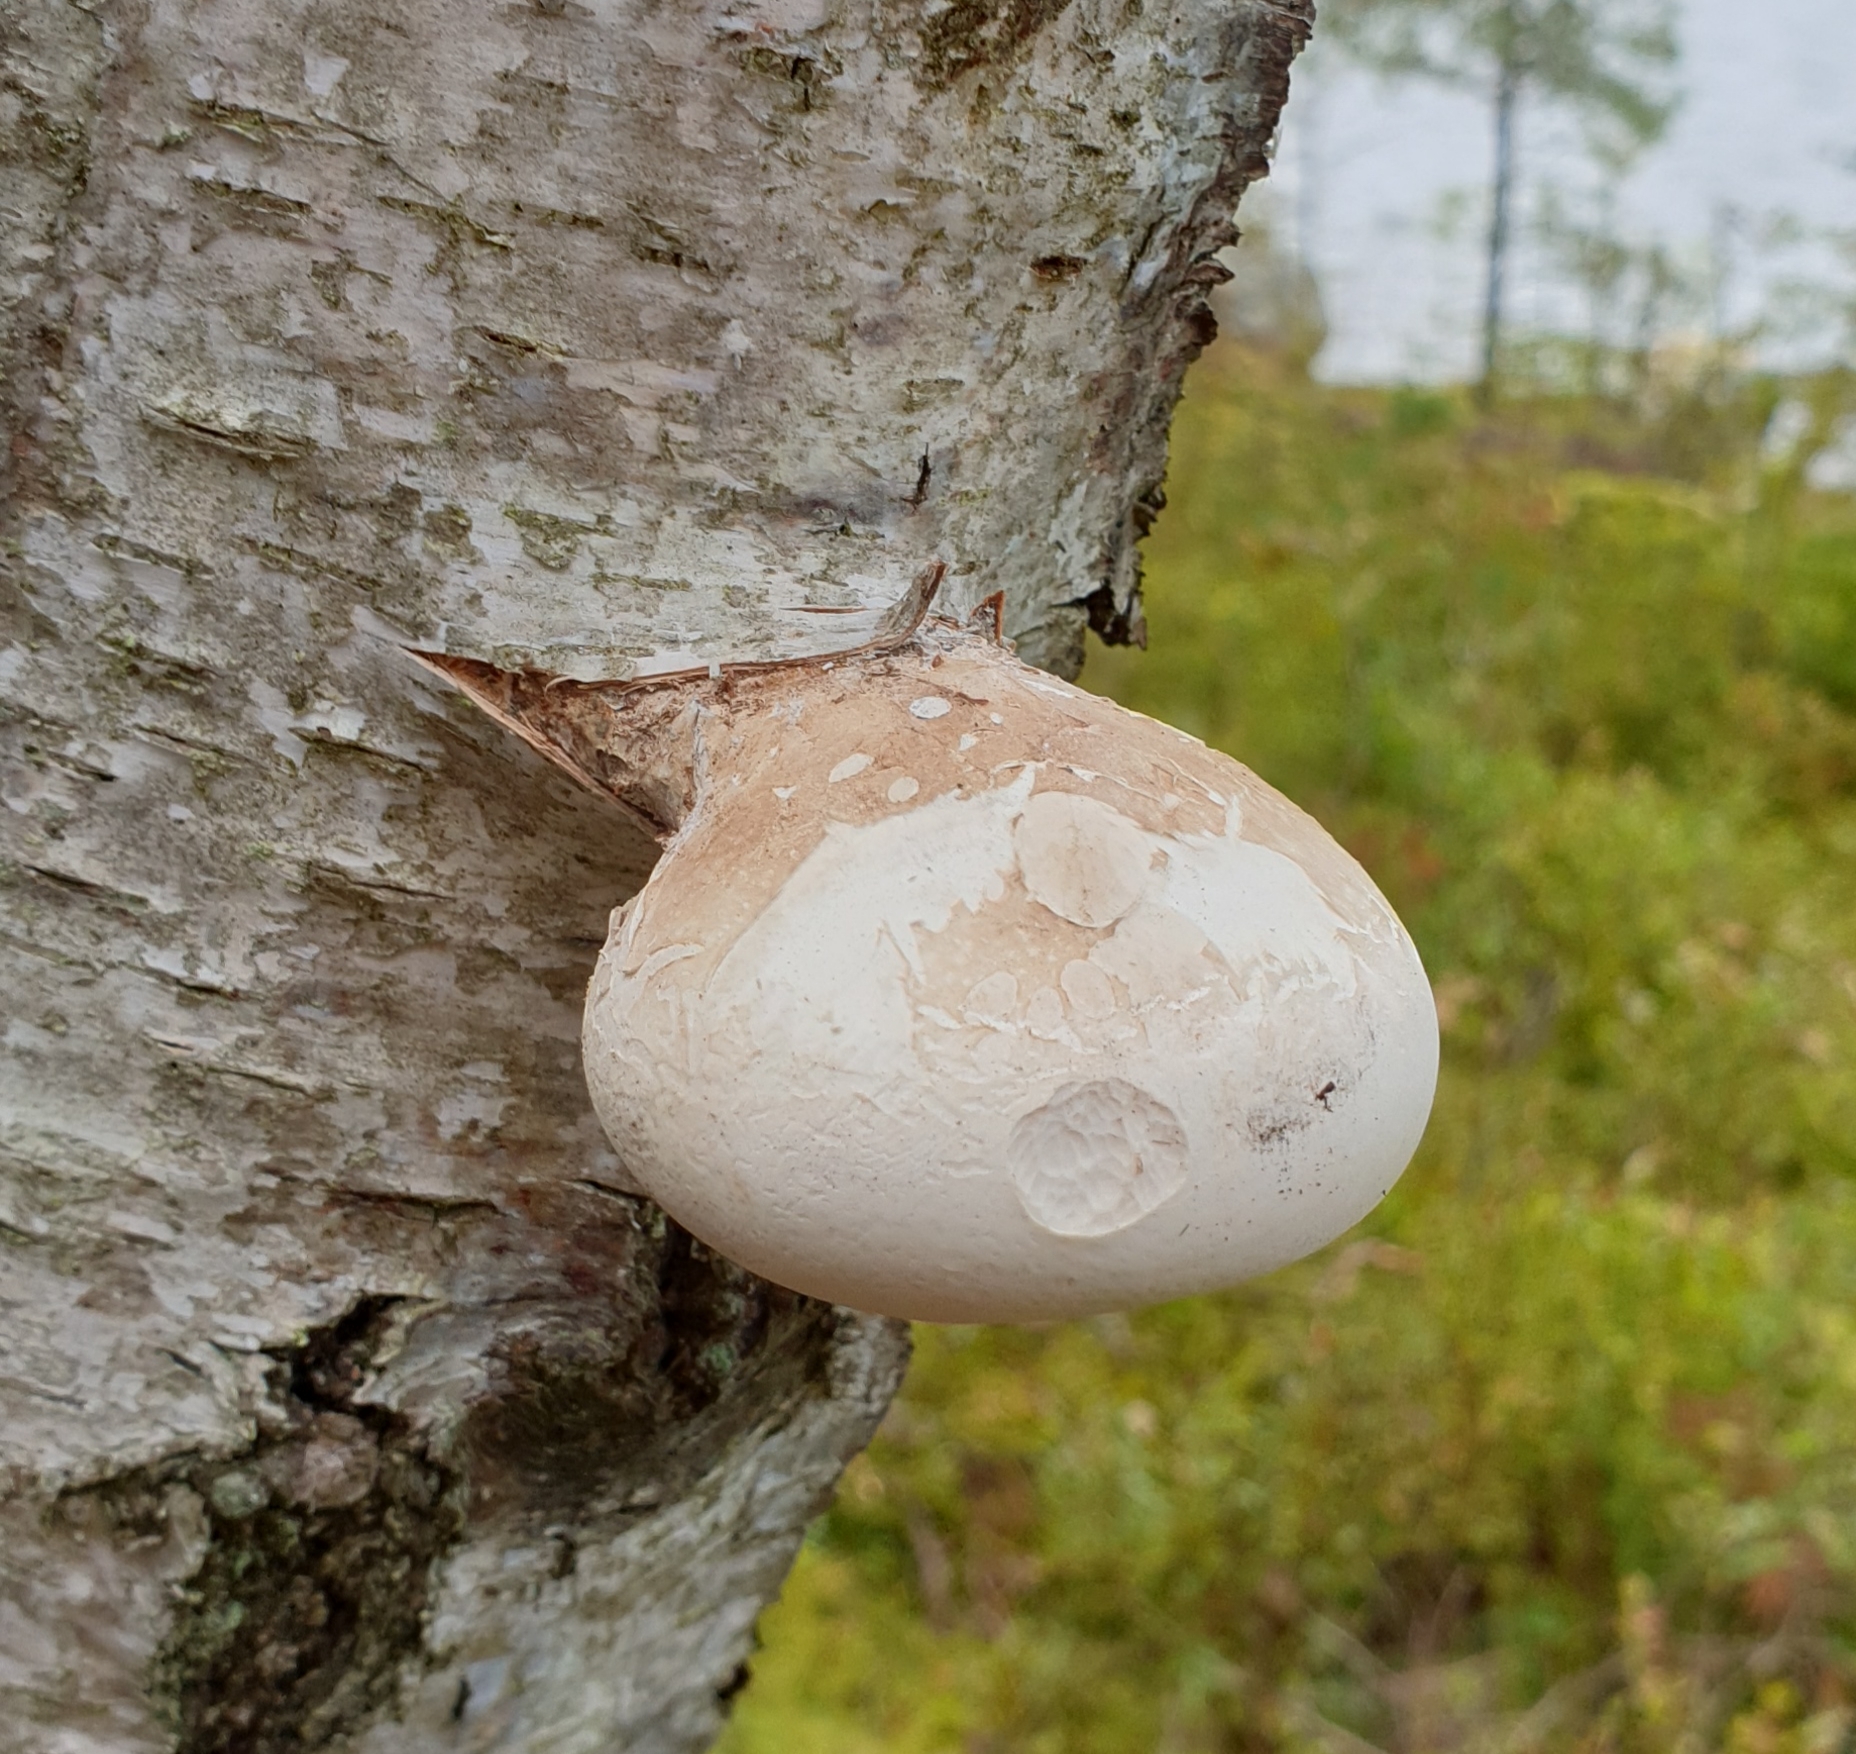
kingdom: Fungi
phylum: Basidiomycota
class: Agaricomycetes
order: Polyporales
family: Fomitopsidaceae
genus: Fomitopsis
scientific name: Fomitopsis betulina
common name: Birch polypore
